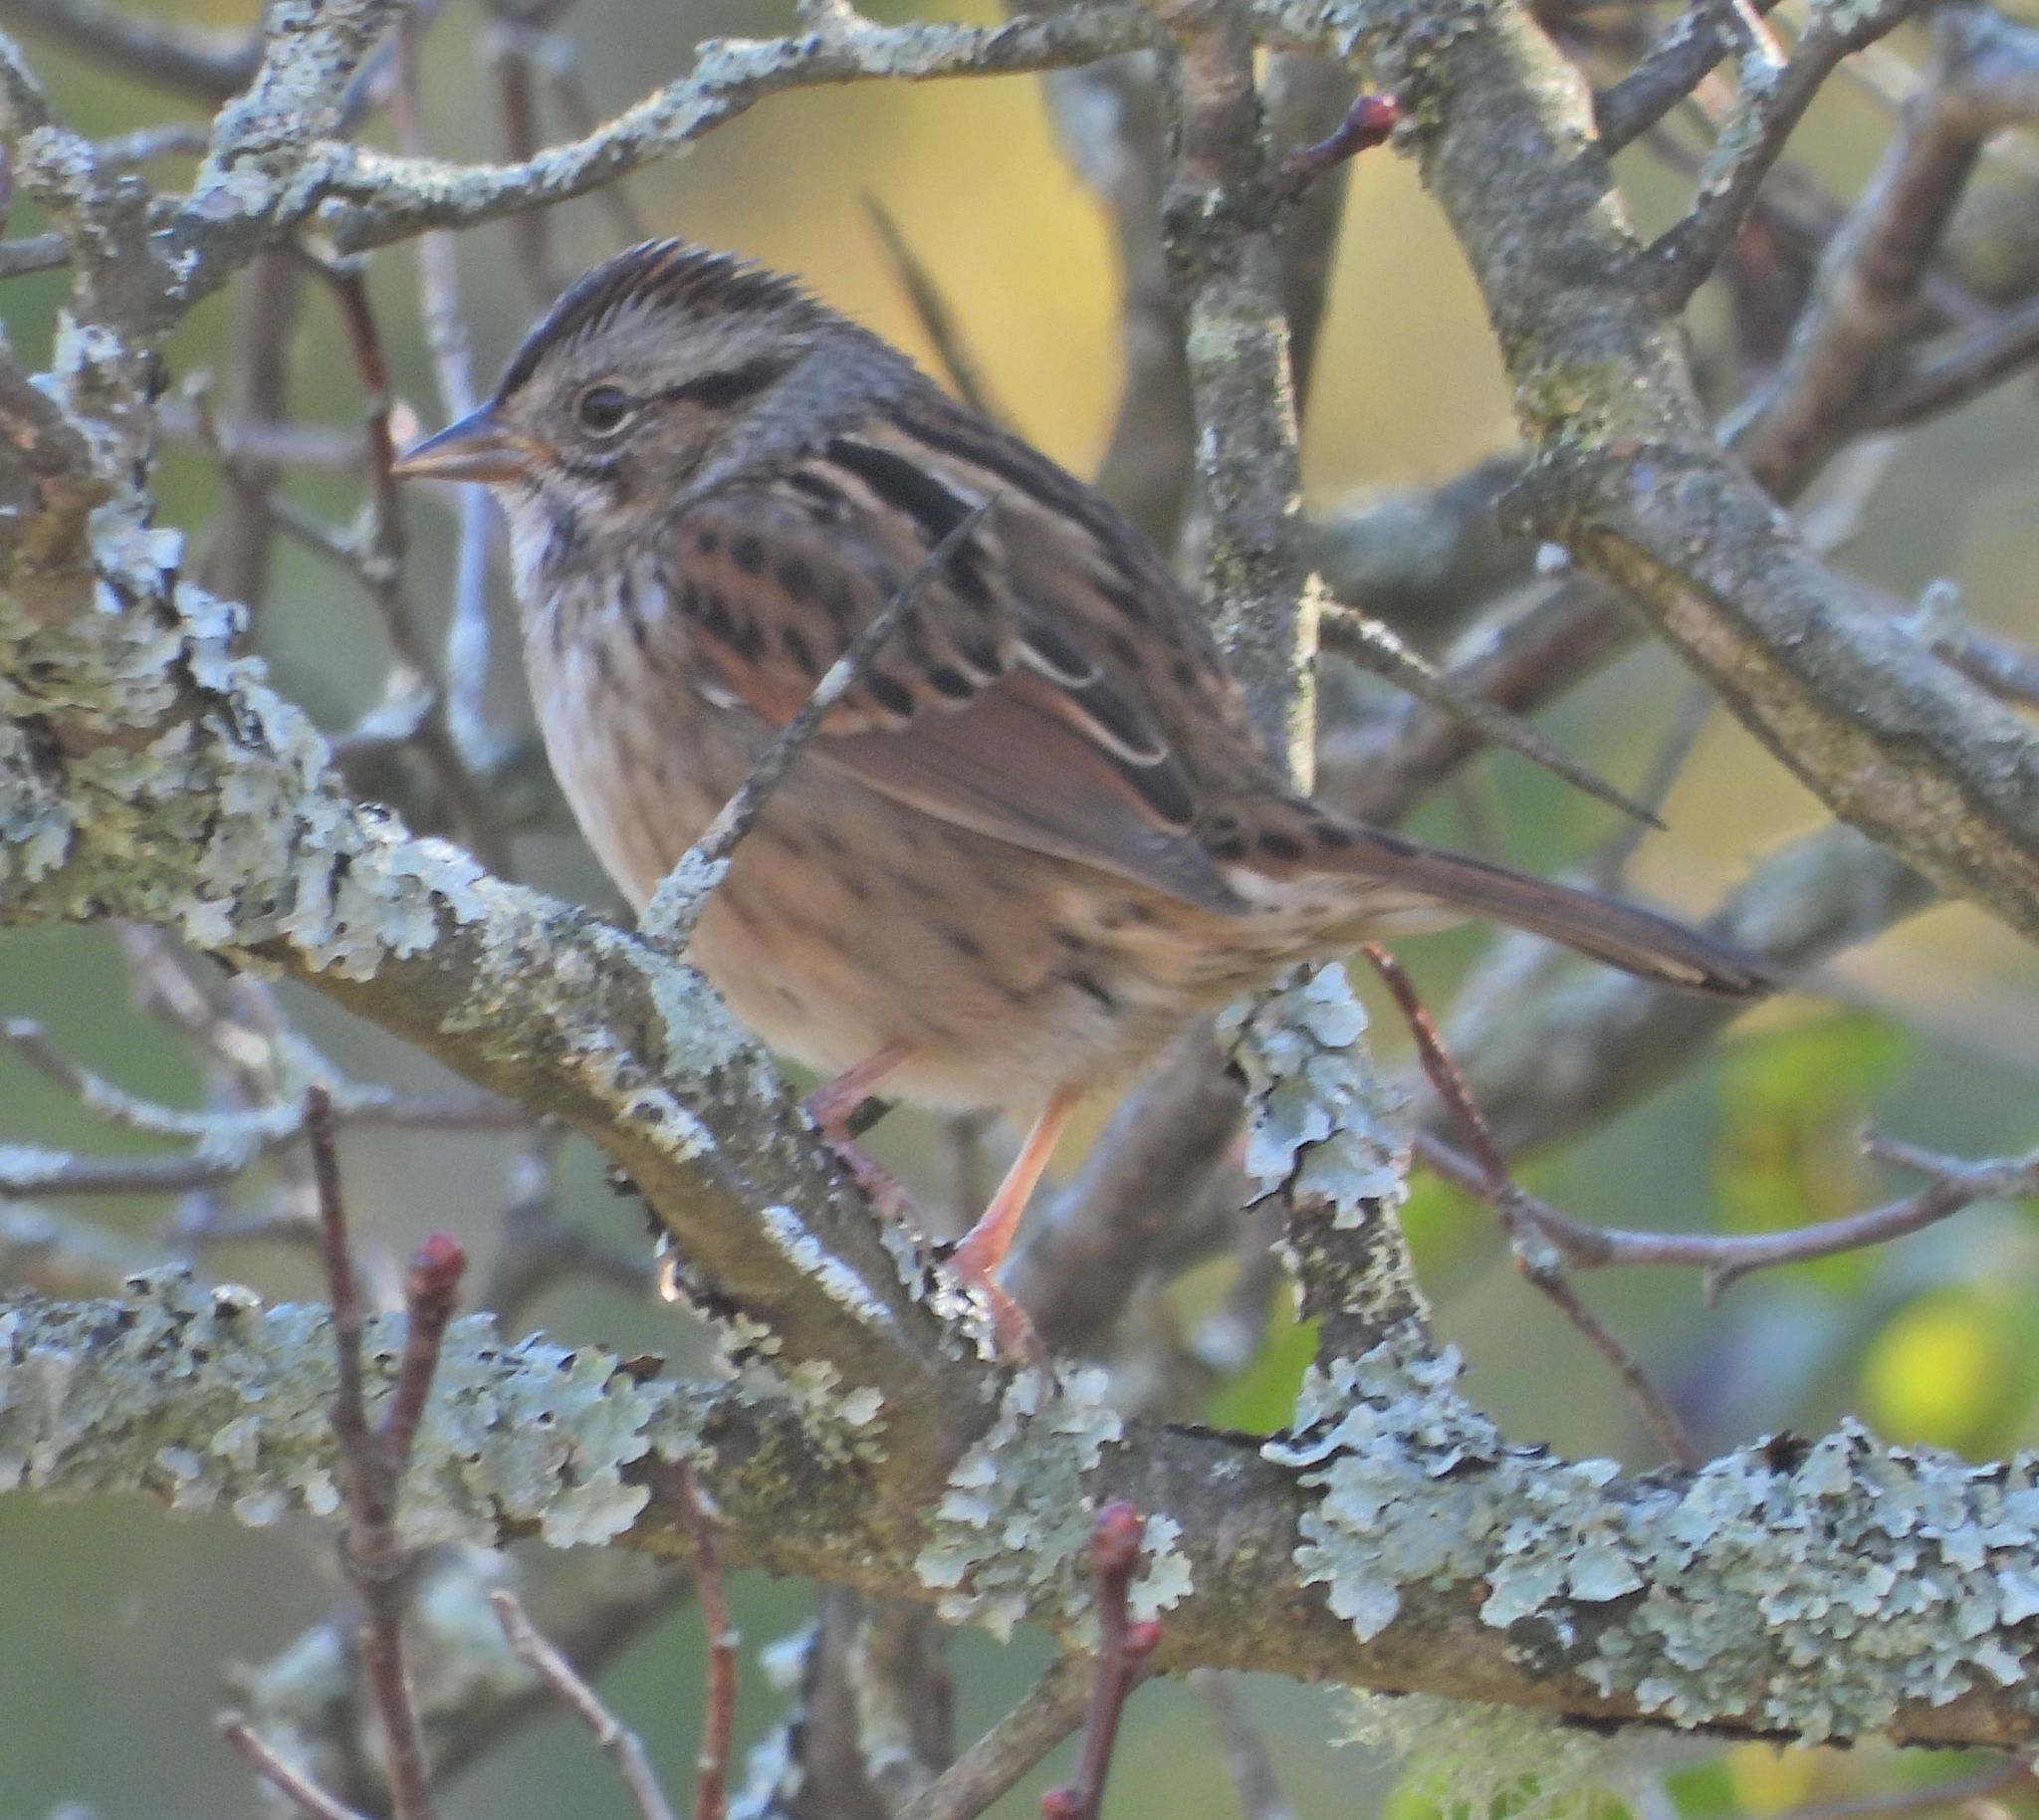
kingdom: Animalia
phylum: Chordata
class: Aves
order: Passeriformes
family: Passerellidae
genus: Melospiza
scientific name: Melospiza georgiana
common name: Swamp sparrow
